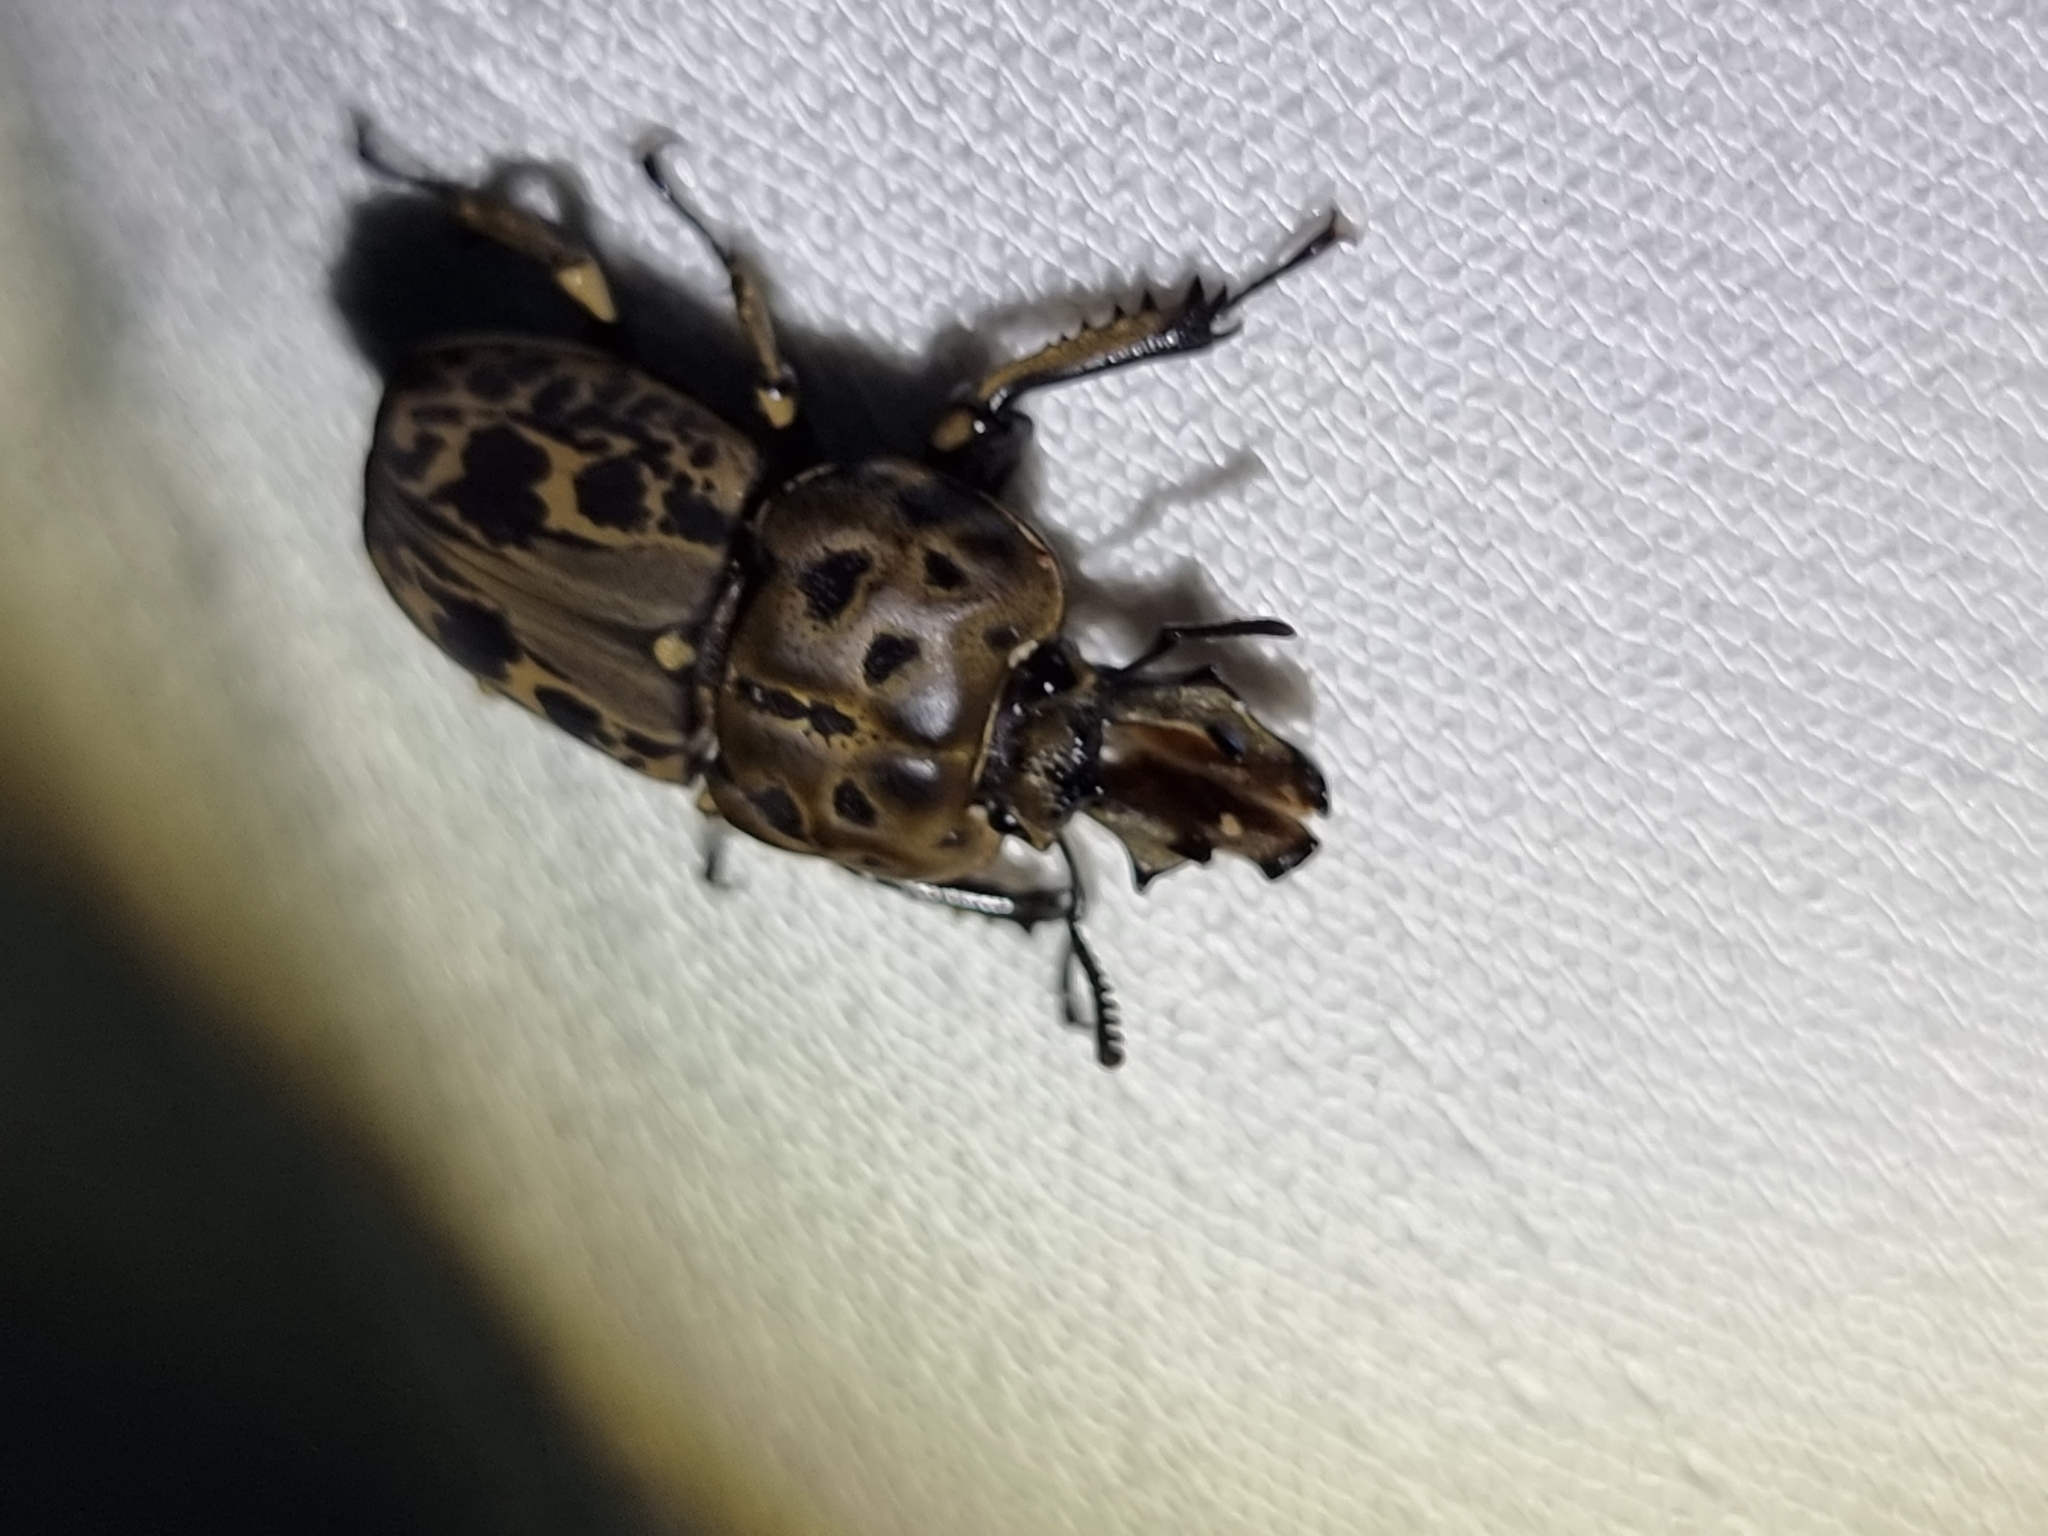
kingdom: Animalia
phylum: Arthropoda
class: Insecta
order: Coleoptera
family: Lucanidae
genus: Ryssonotus
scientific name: Ryssonotus nebulosus
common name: Brown stag beetle
